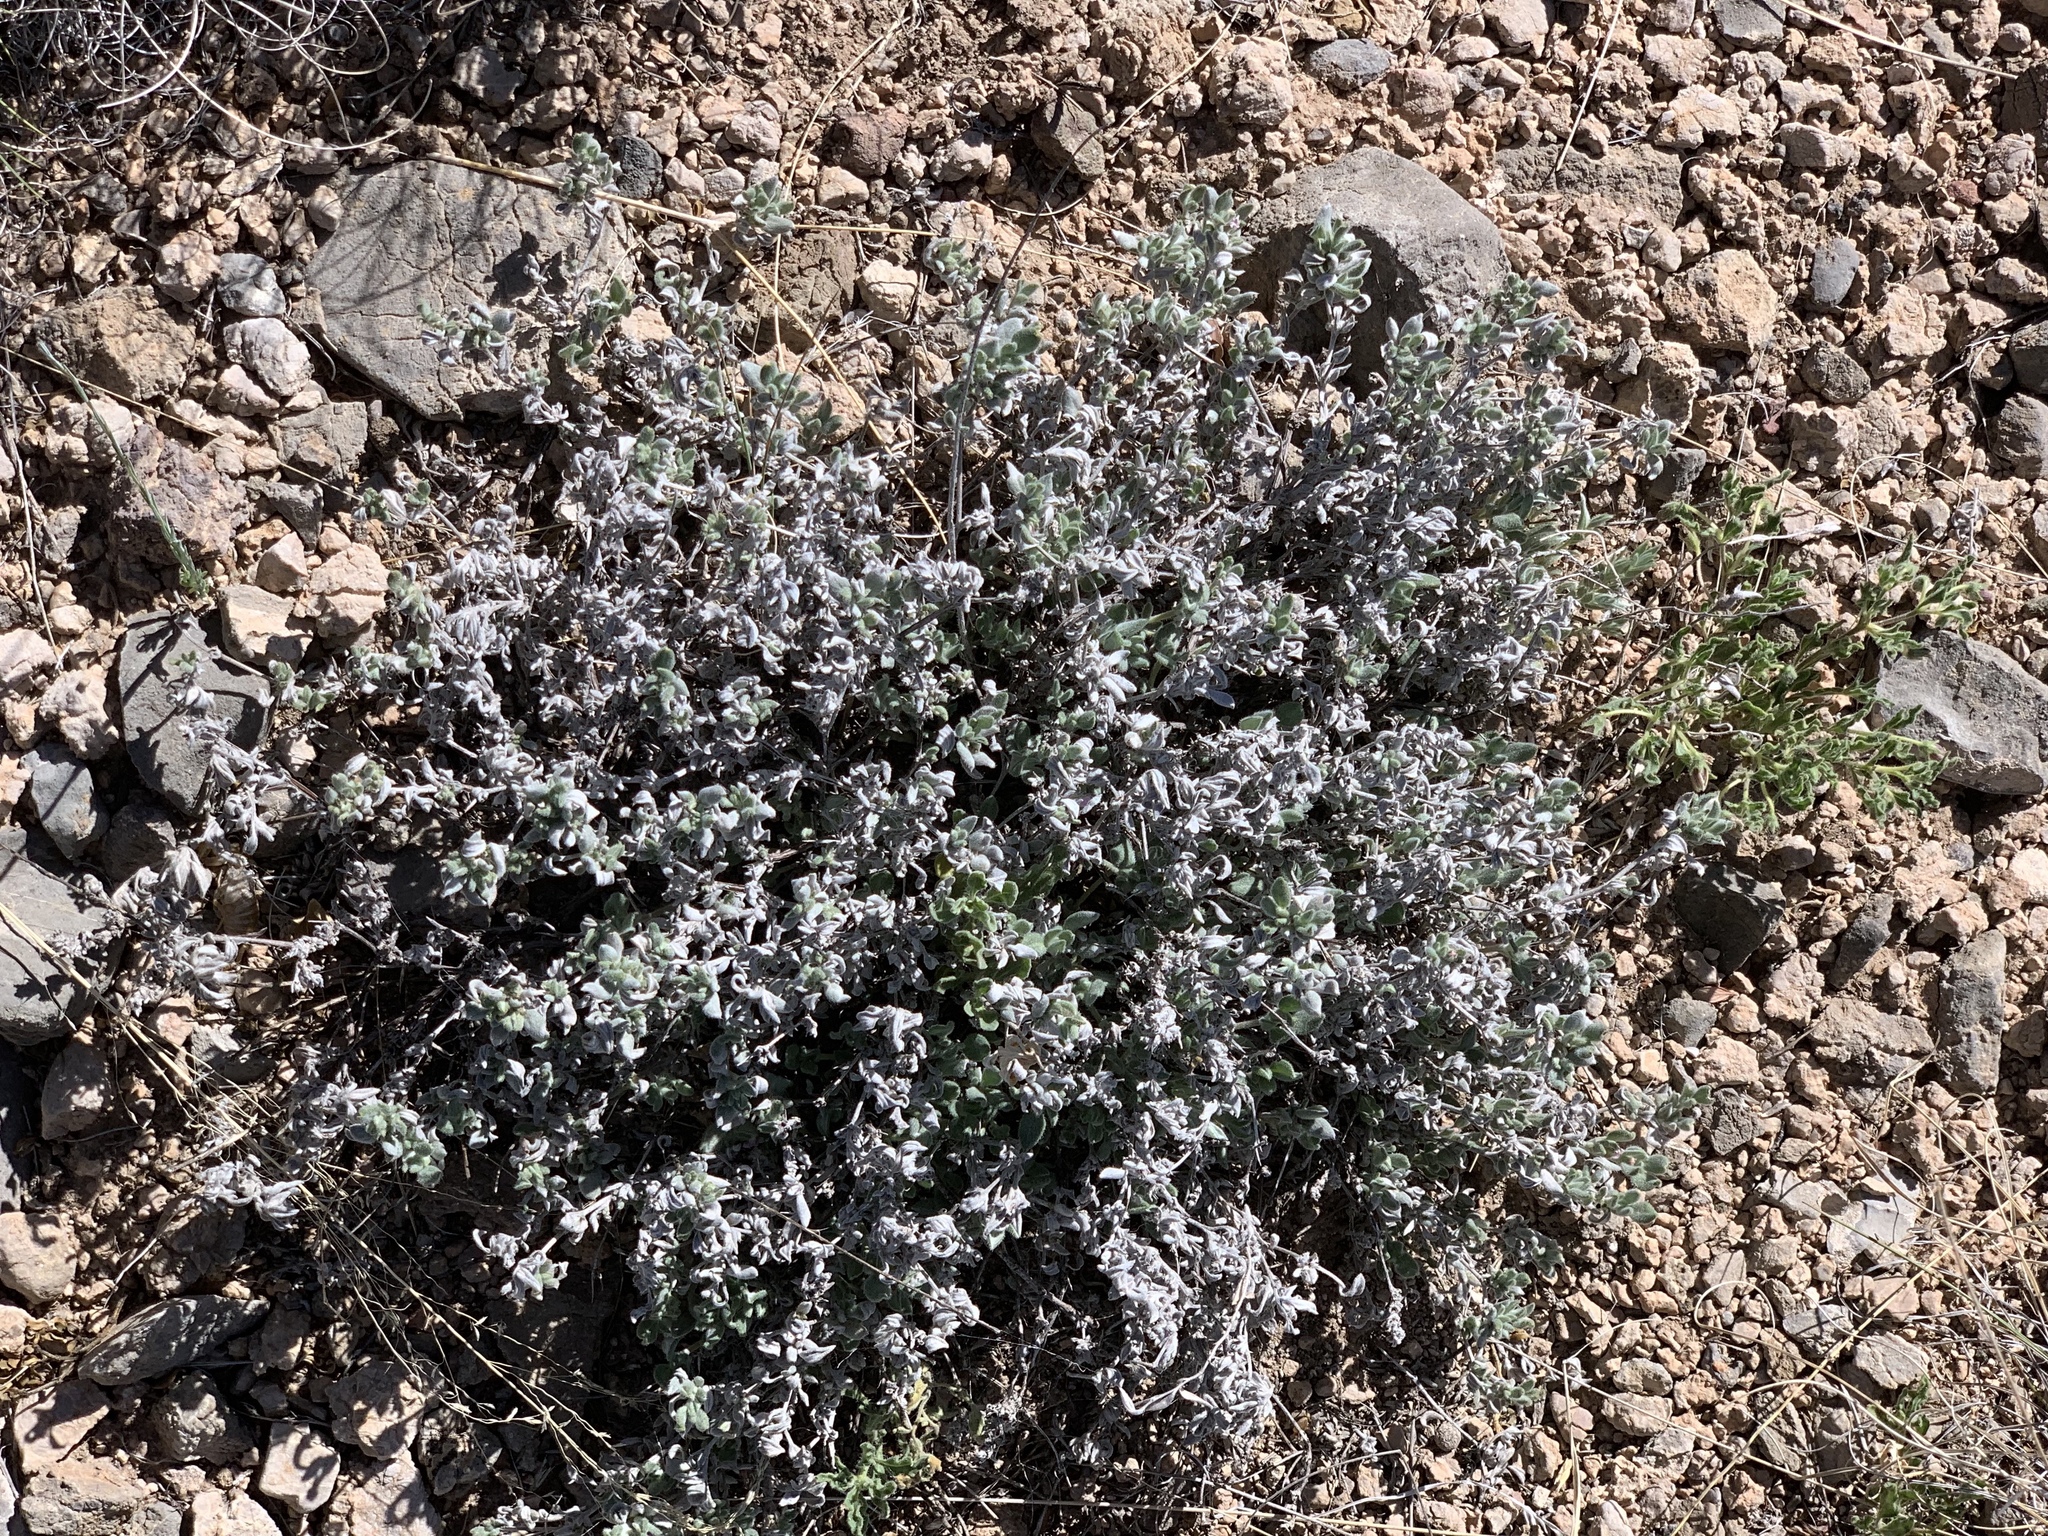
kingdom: Plantae
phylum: Tracheophyta
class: Magnoliopsida
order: Boraginales
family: Ehretiaceae
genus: Tiquilia
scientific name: Tiquilia canescens
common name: Hairy tiquilia
